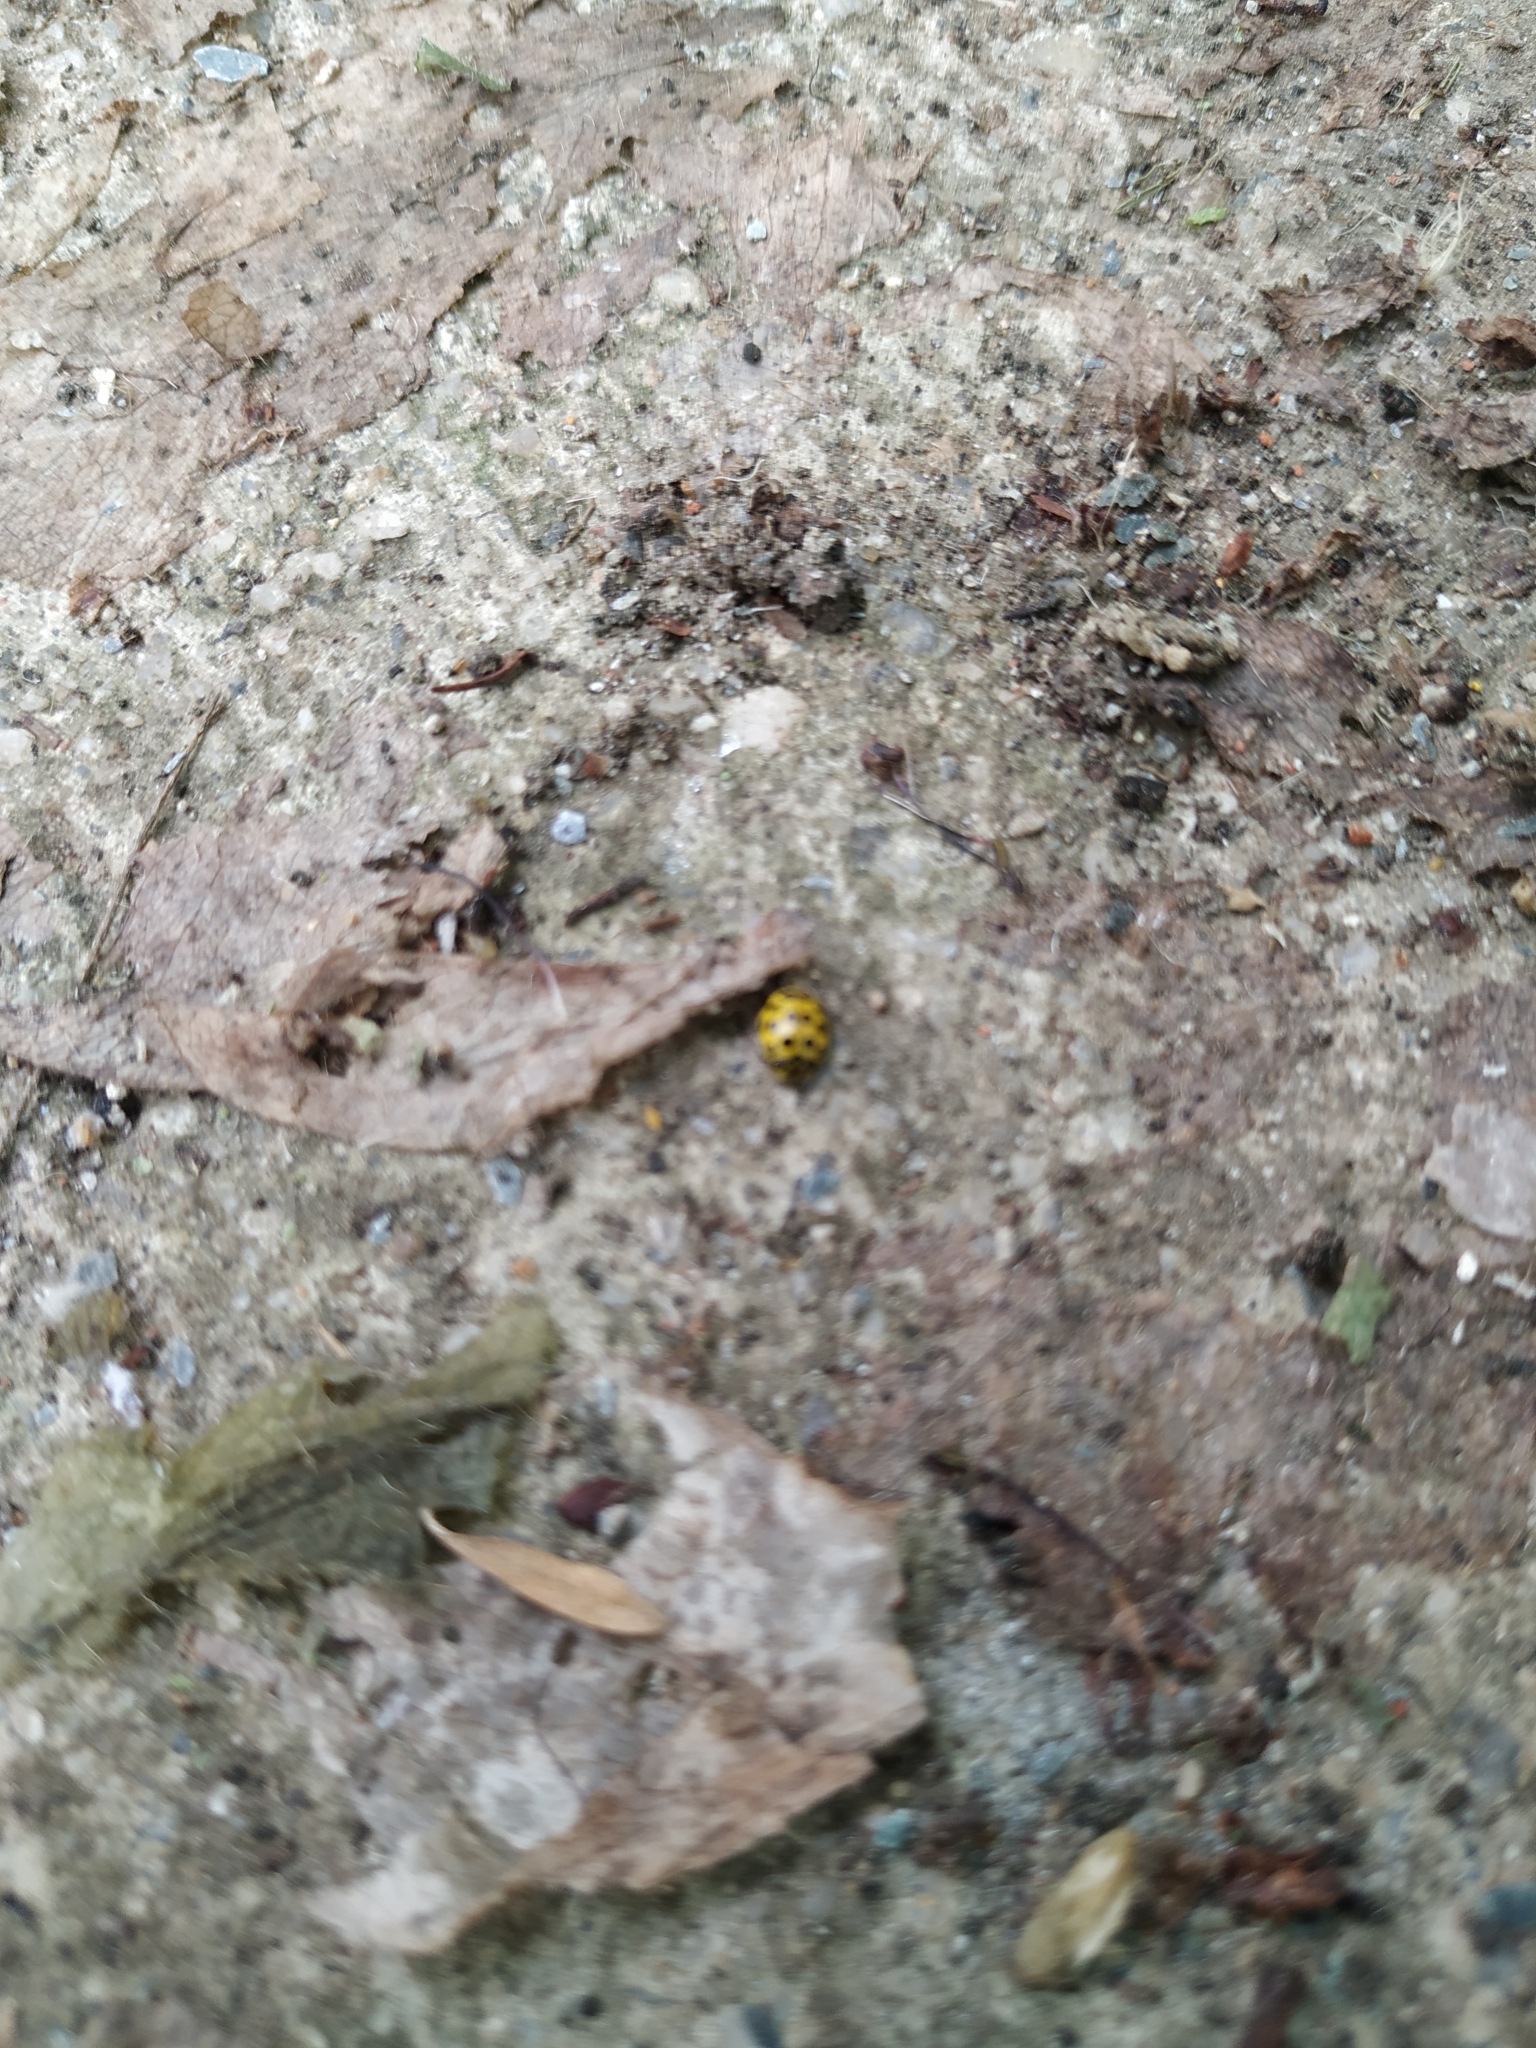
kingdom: Animalia
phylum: Arthropoda
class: Insecta
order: Coleoptera
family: Coccinellidae
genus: Psyllobora
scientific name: Psyllobora vigintiduopunctata
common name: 22-spot ladybird
